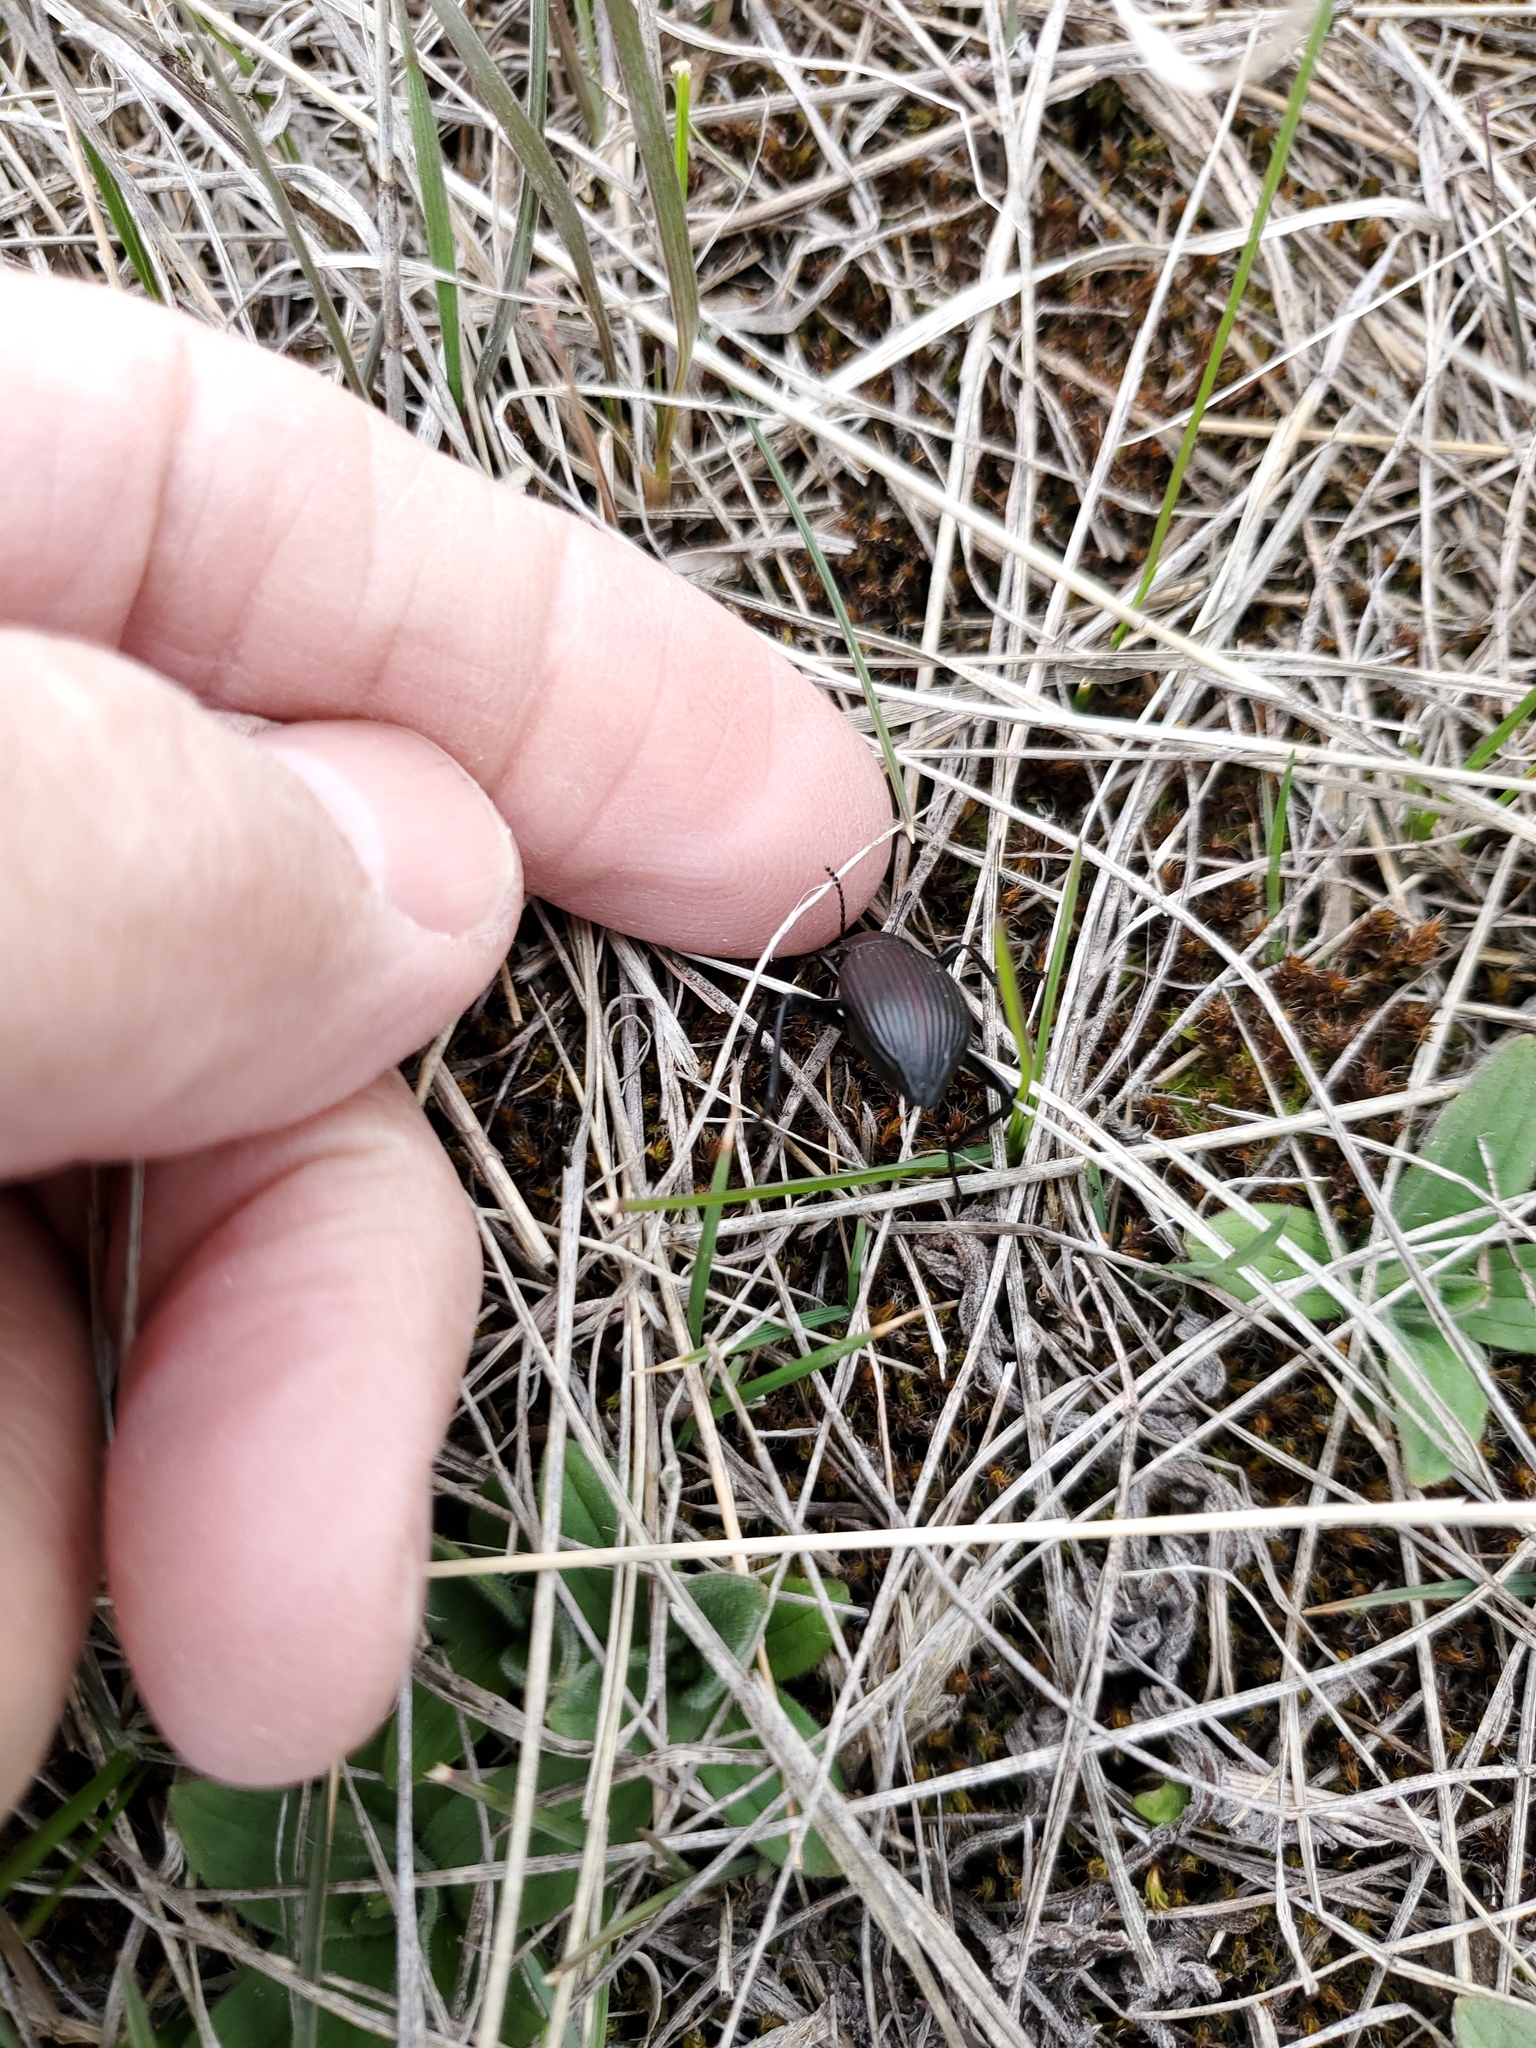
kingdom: Animalia
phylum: Arthropoda
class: Insecta
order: Coleoptera
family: Tenebrionidae
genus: Eleodes
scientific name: Eleodes hispilabris
